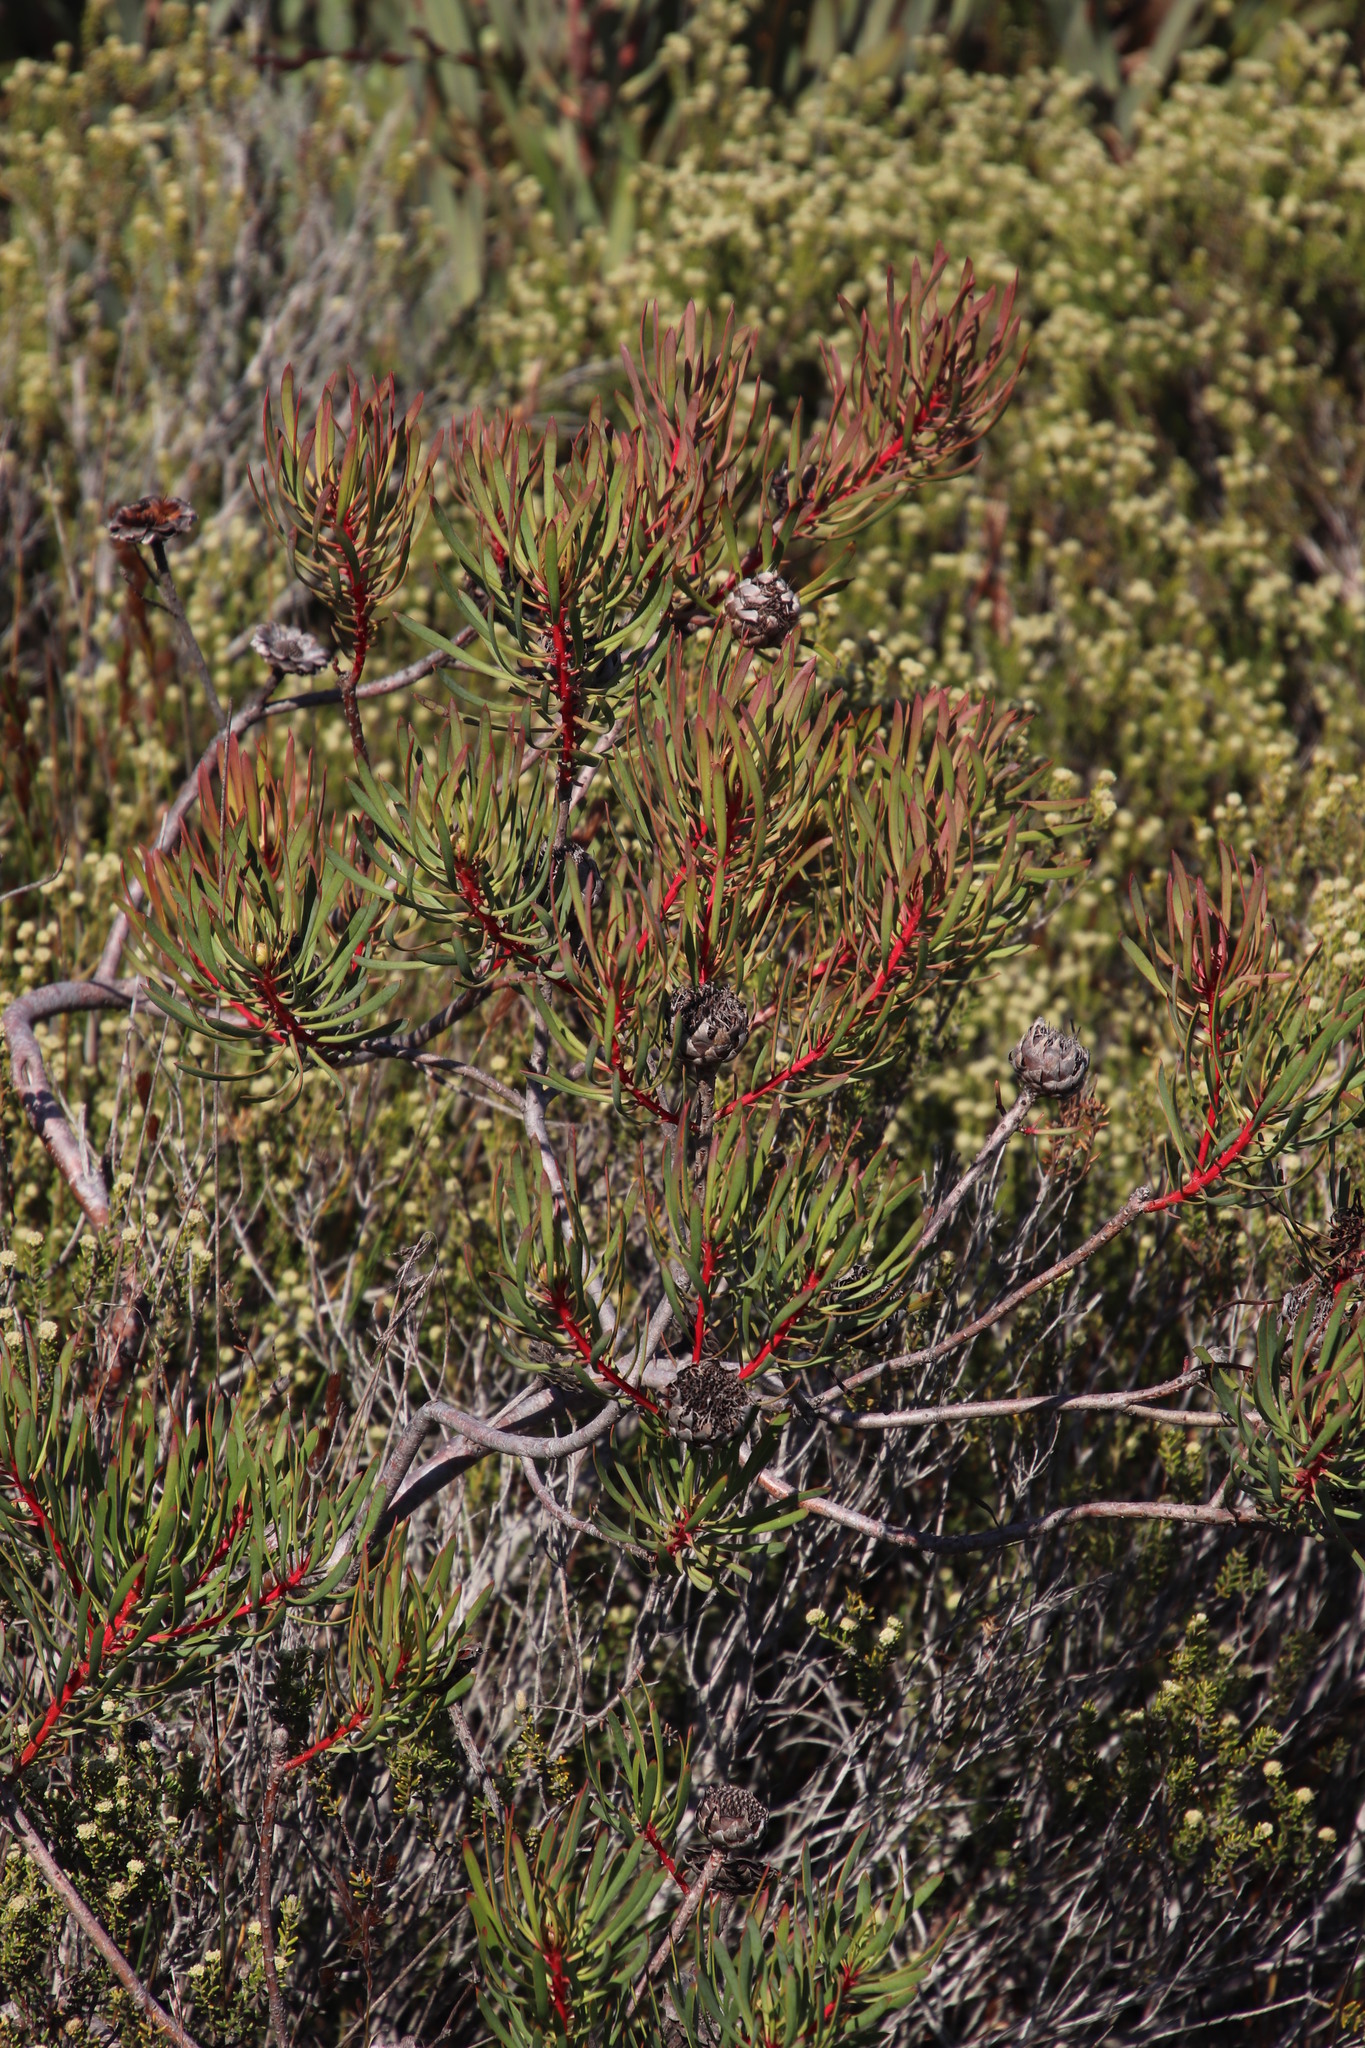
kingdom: Plantae
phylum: Tracheophyta
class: Magnoliopsida
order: Proteales
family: Proteaceae
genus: Protea
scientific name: Protea scolymocephala
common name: Thistle sugarbush
